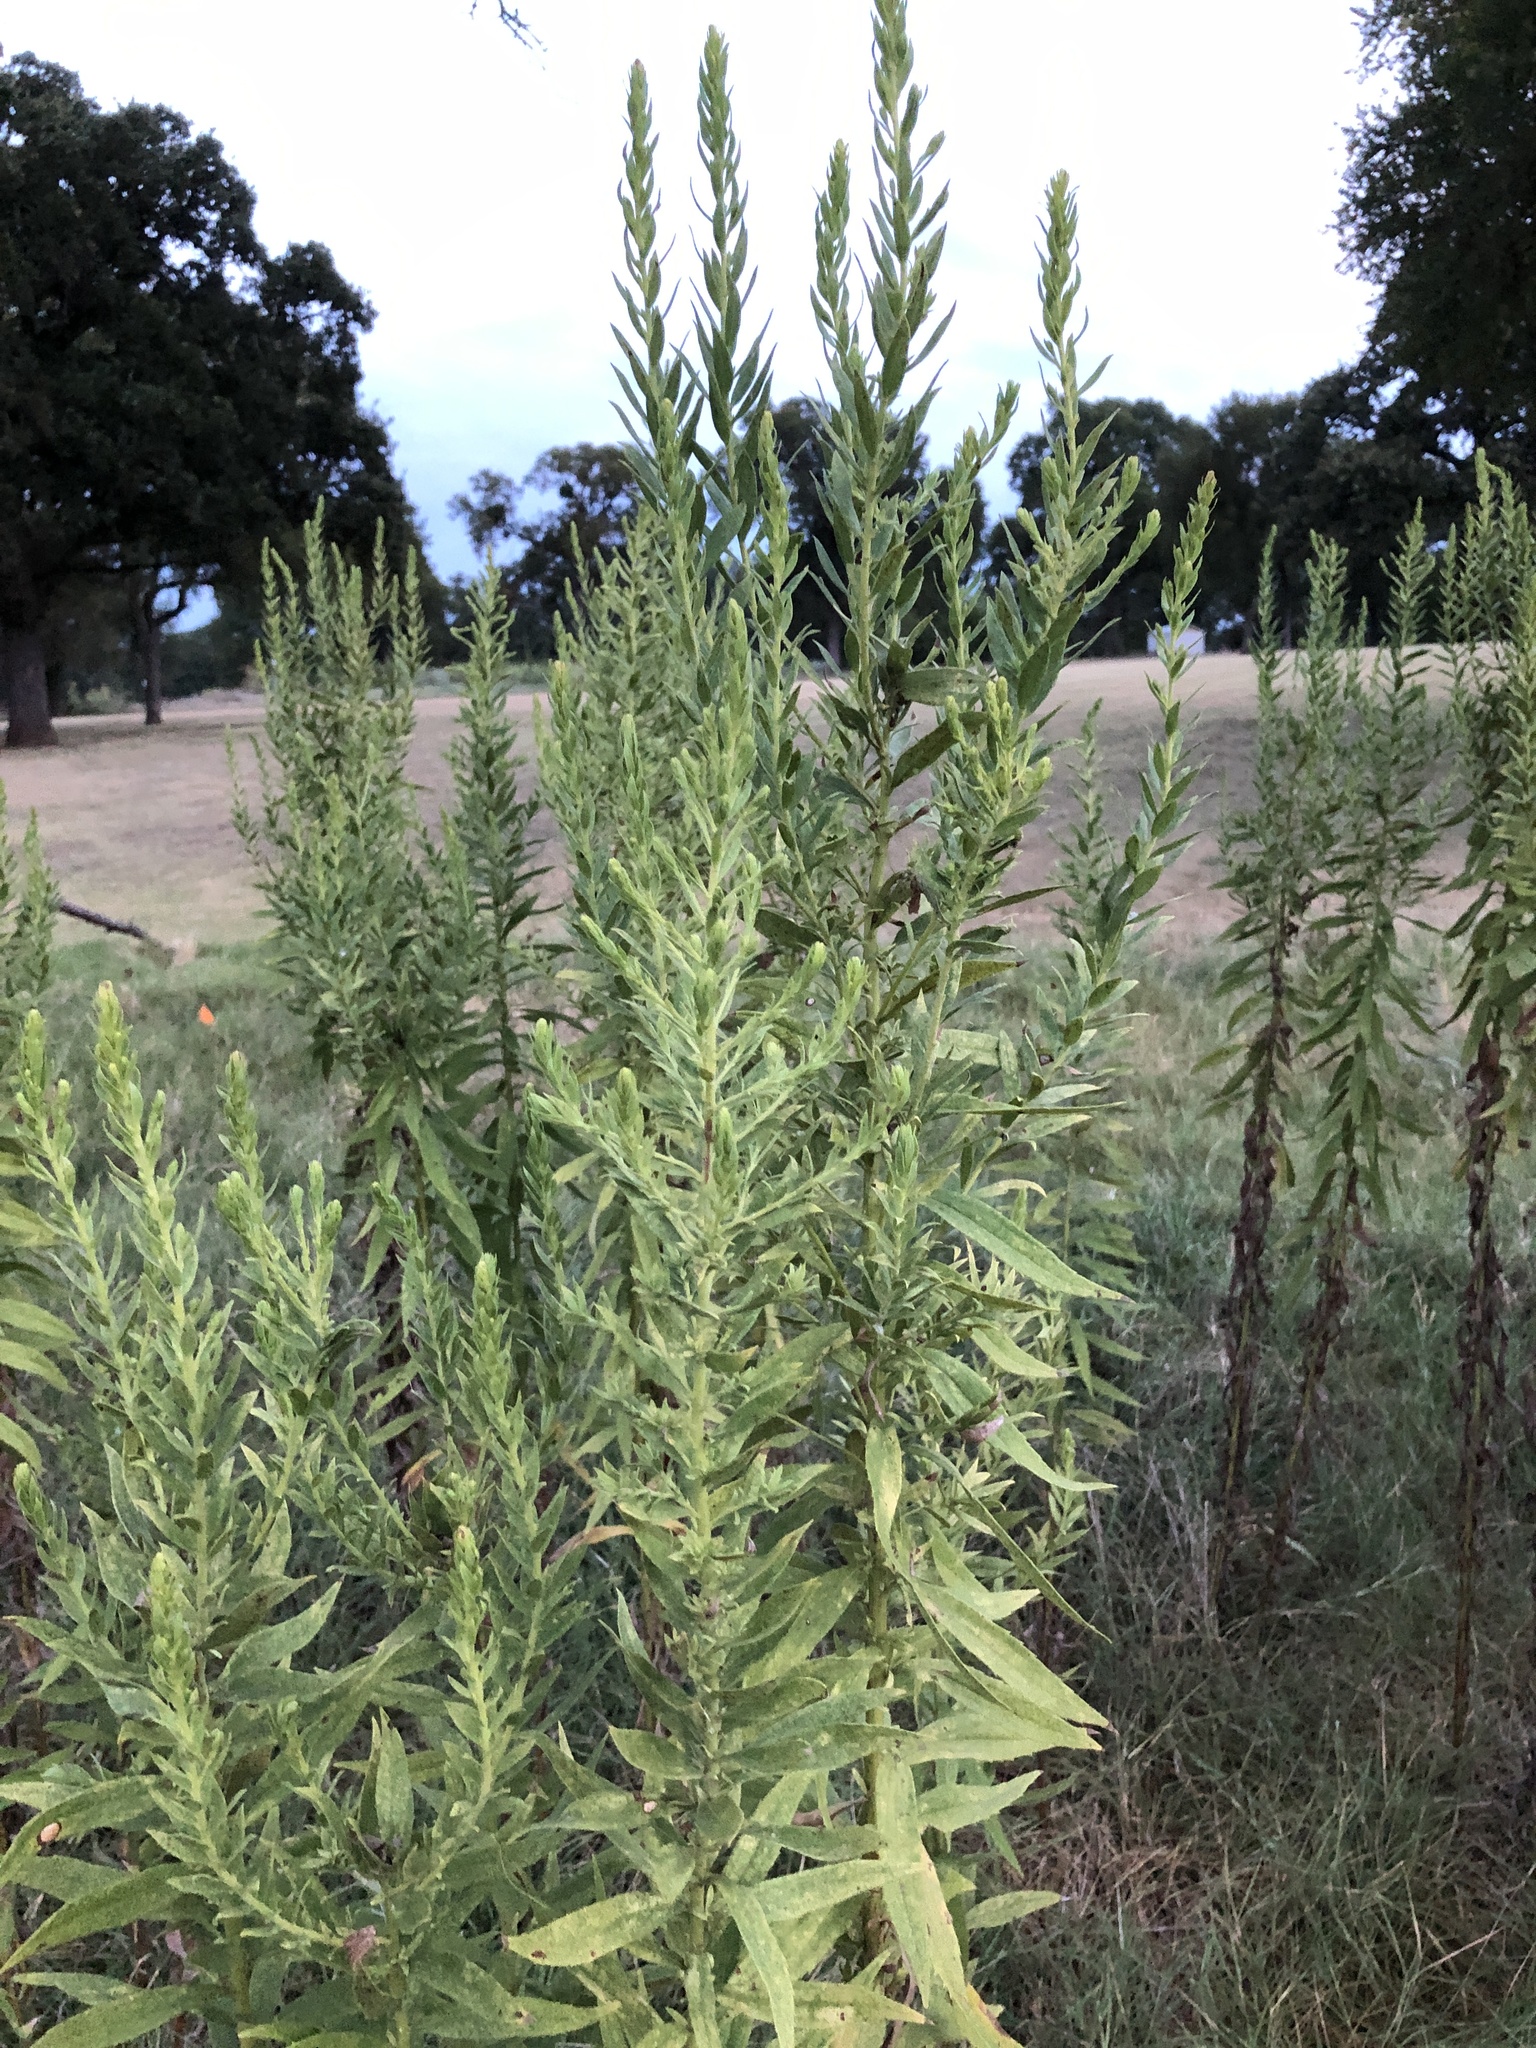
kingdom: Plantae
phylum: Tracheophyta
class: Magnoliopsida
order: Asterales
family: Asteraceae
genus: Solidago
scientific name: Solidago altissima
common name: Late goldenrod
